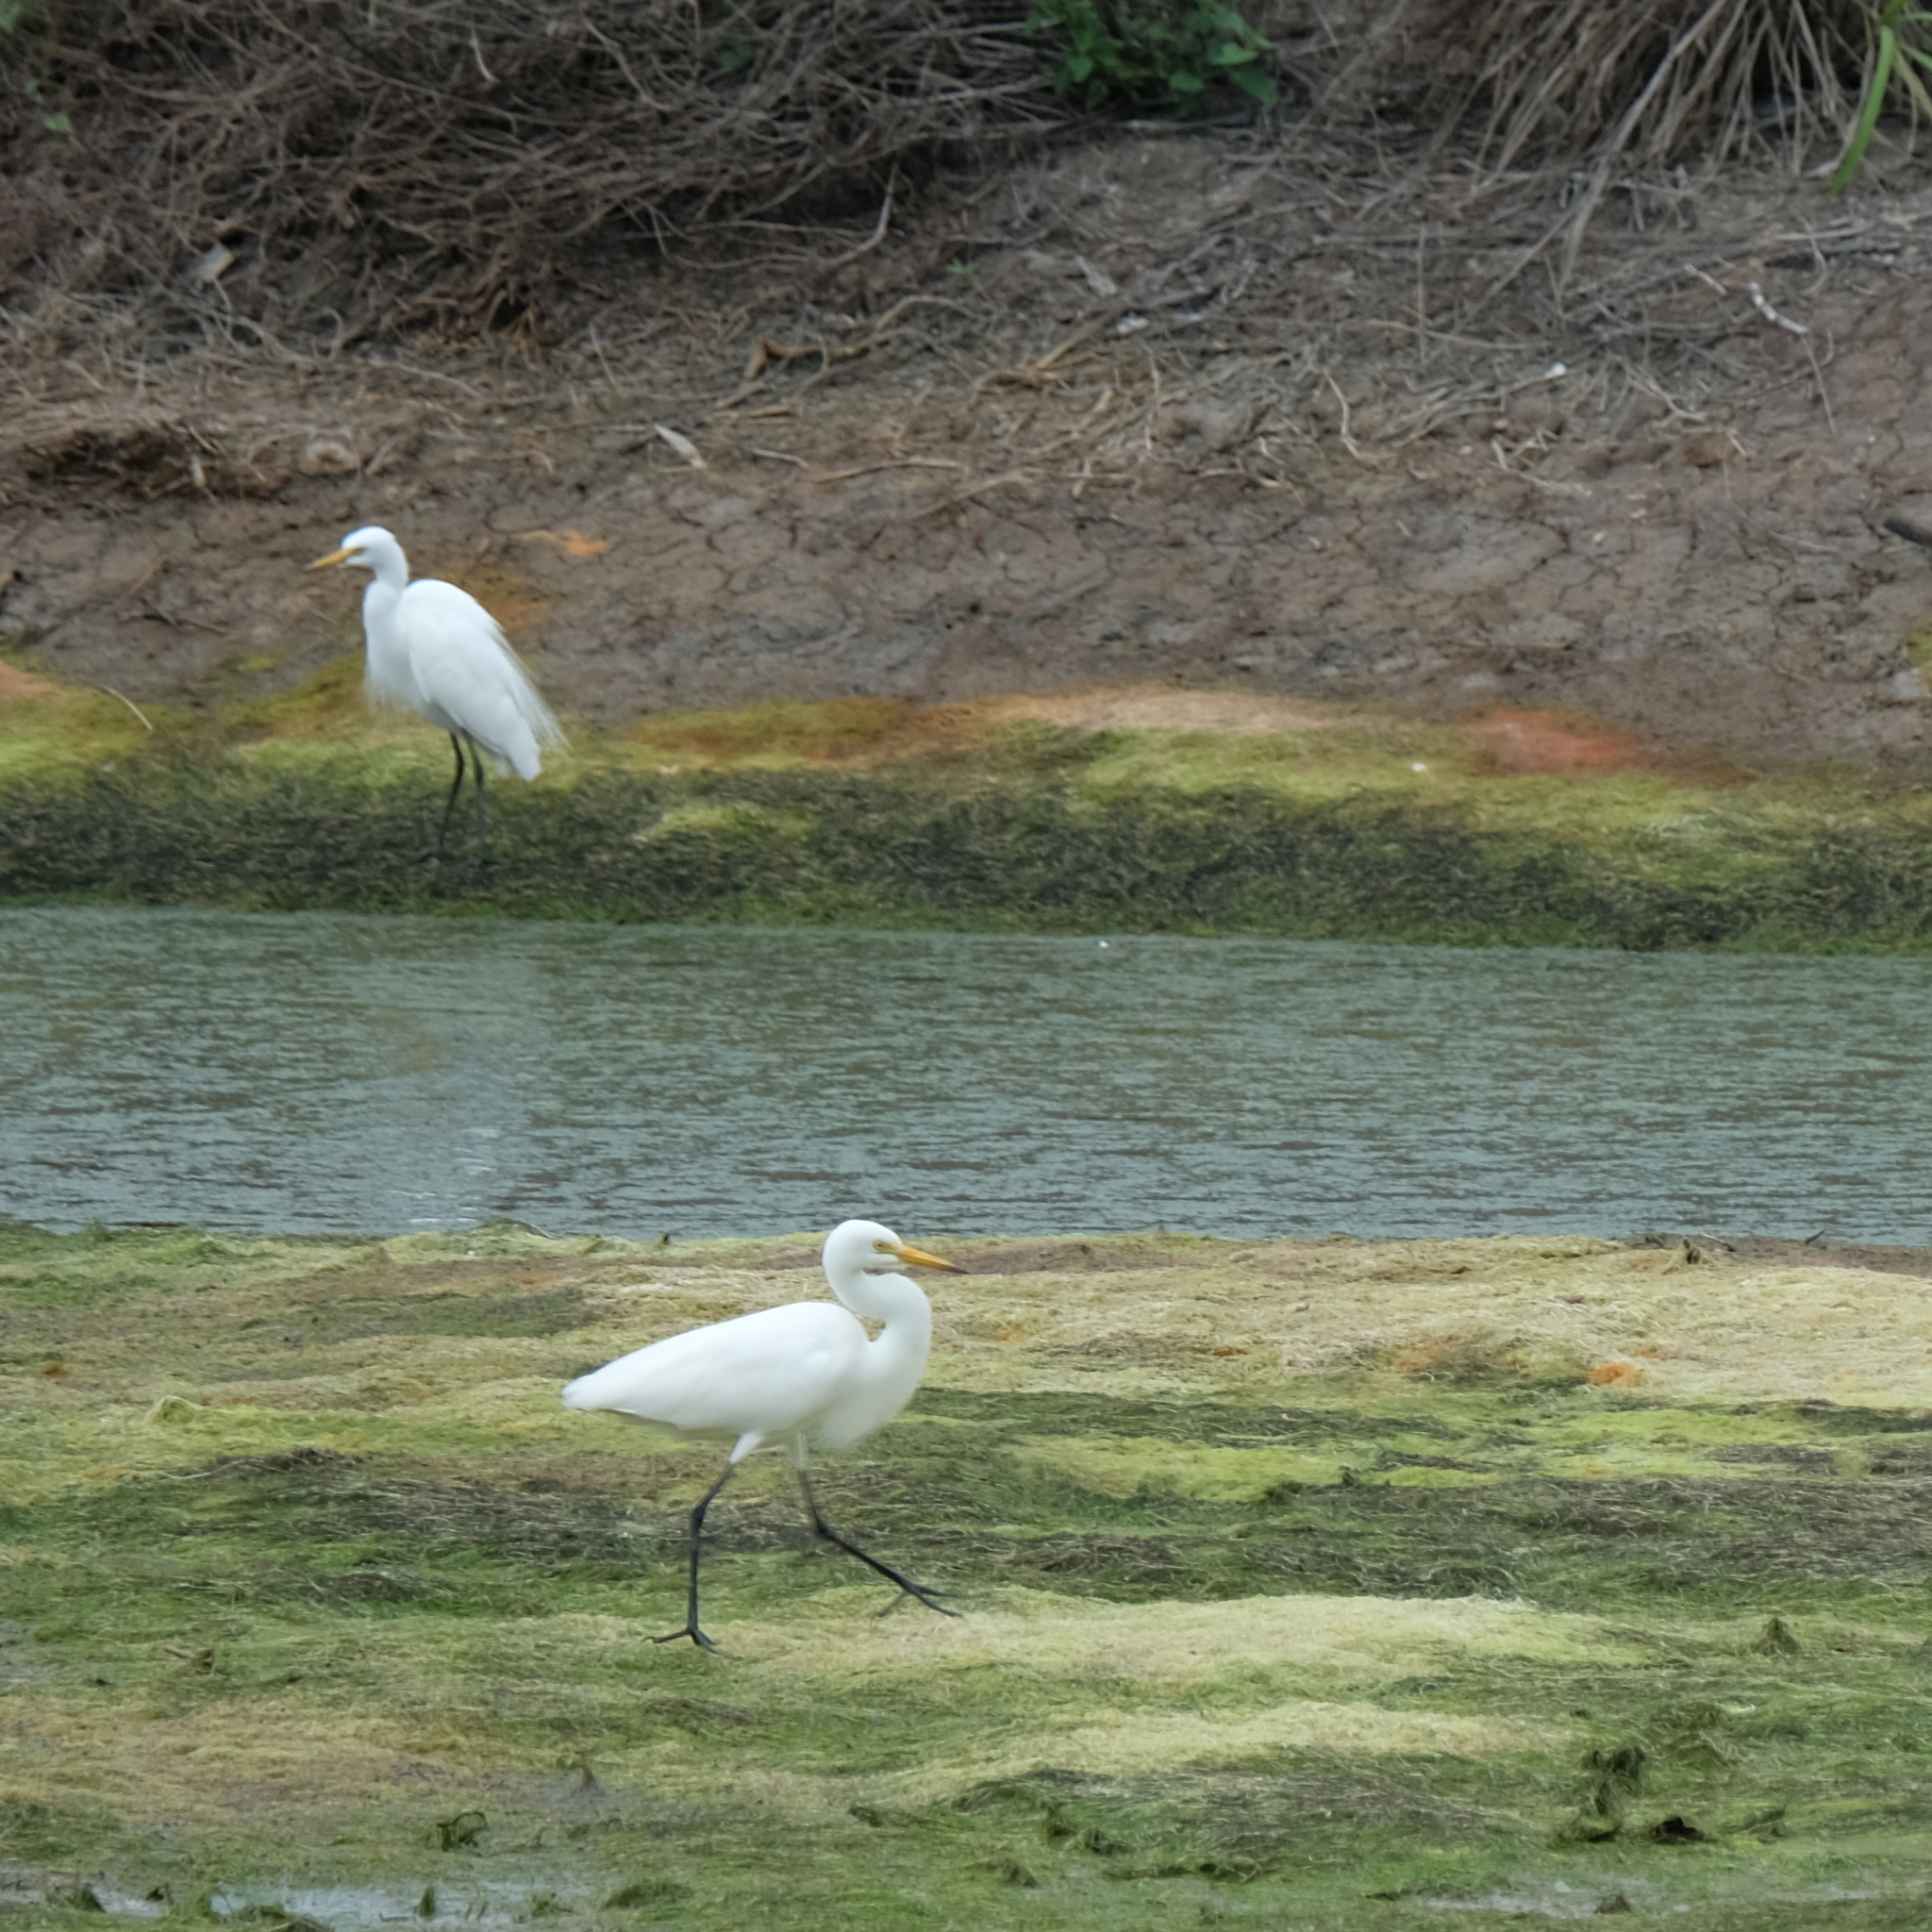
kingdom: Animalia
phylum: Chordata
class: Aves
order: Pelecaniformes
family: Ardeidae
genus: Ardea
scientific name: Ardea alba
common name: Great egret
